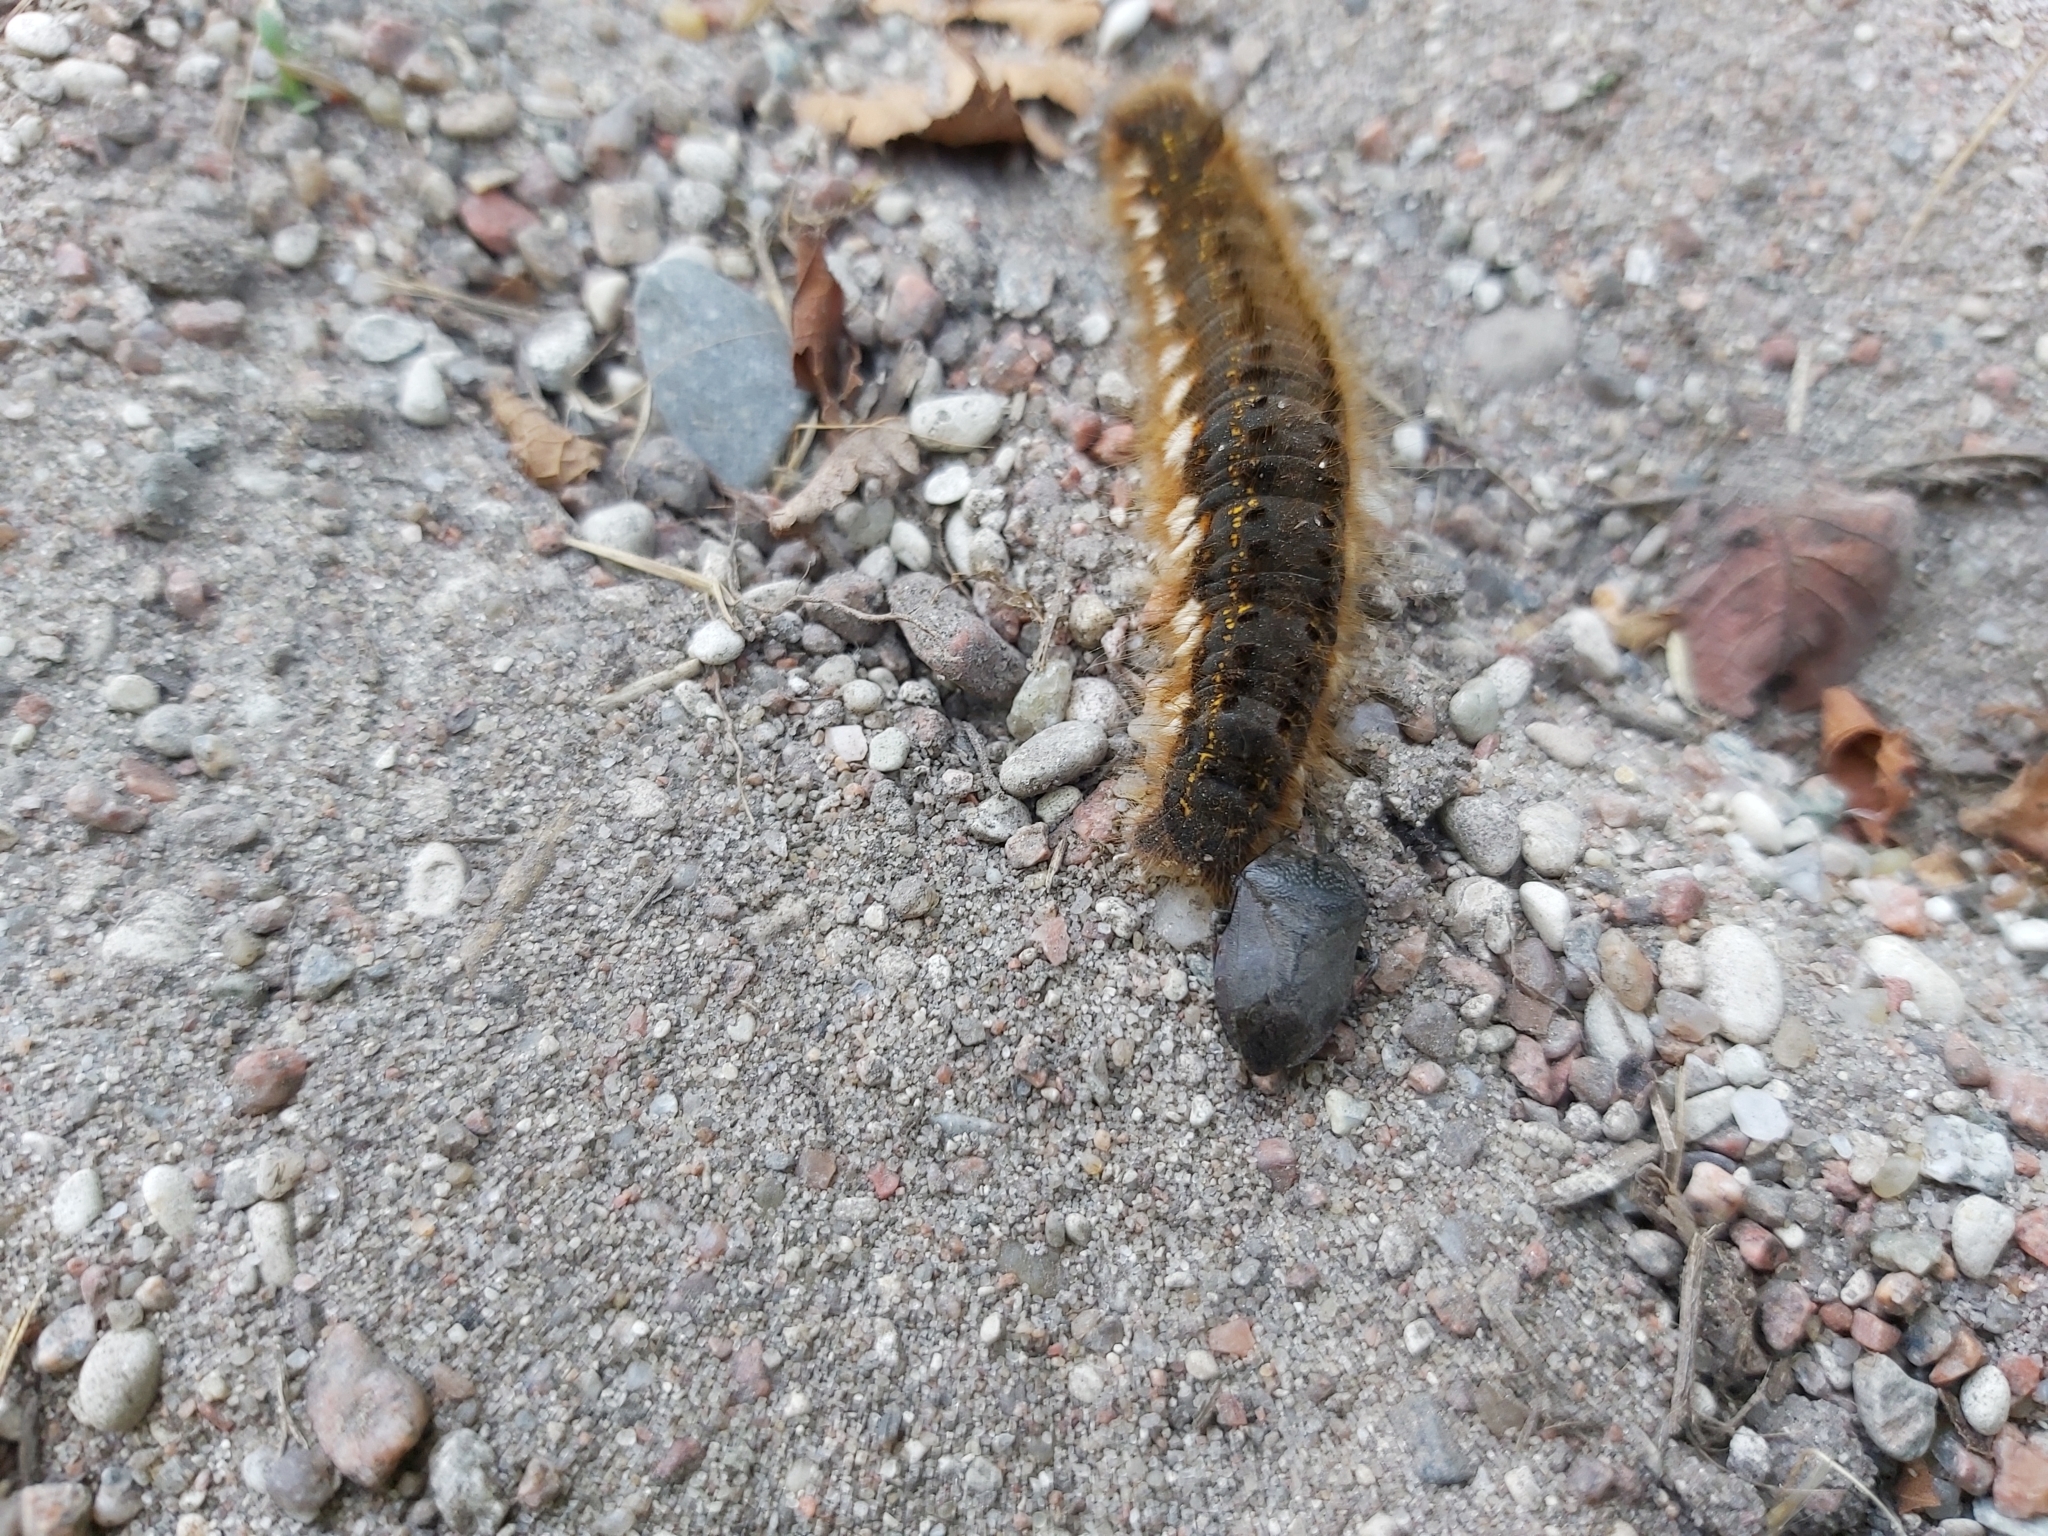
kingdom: Animalia
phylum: Arthropoda
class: Insecta
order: Hemiptera
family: Pentatomidae
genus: Jalla
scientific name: Jalla dumosa
